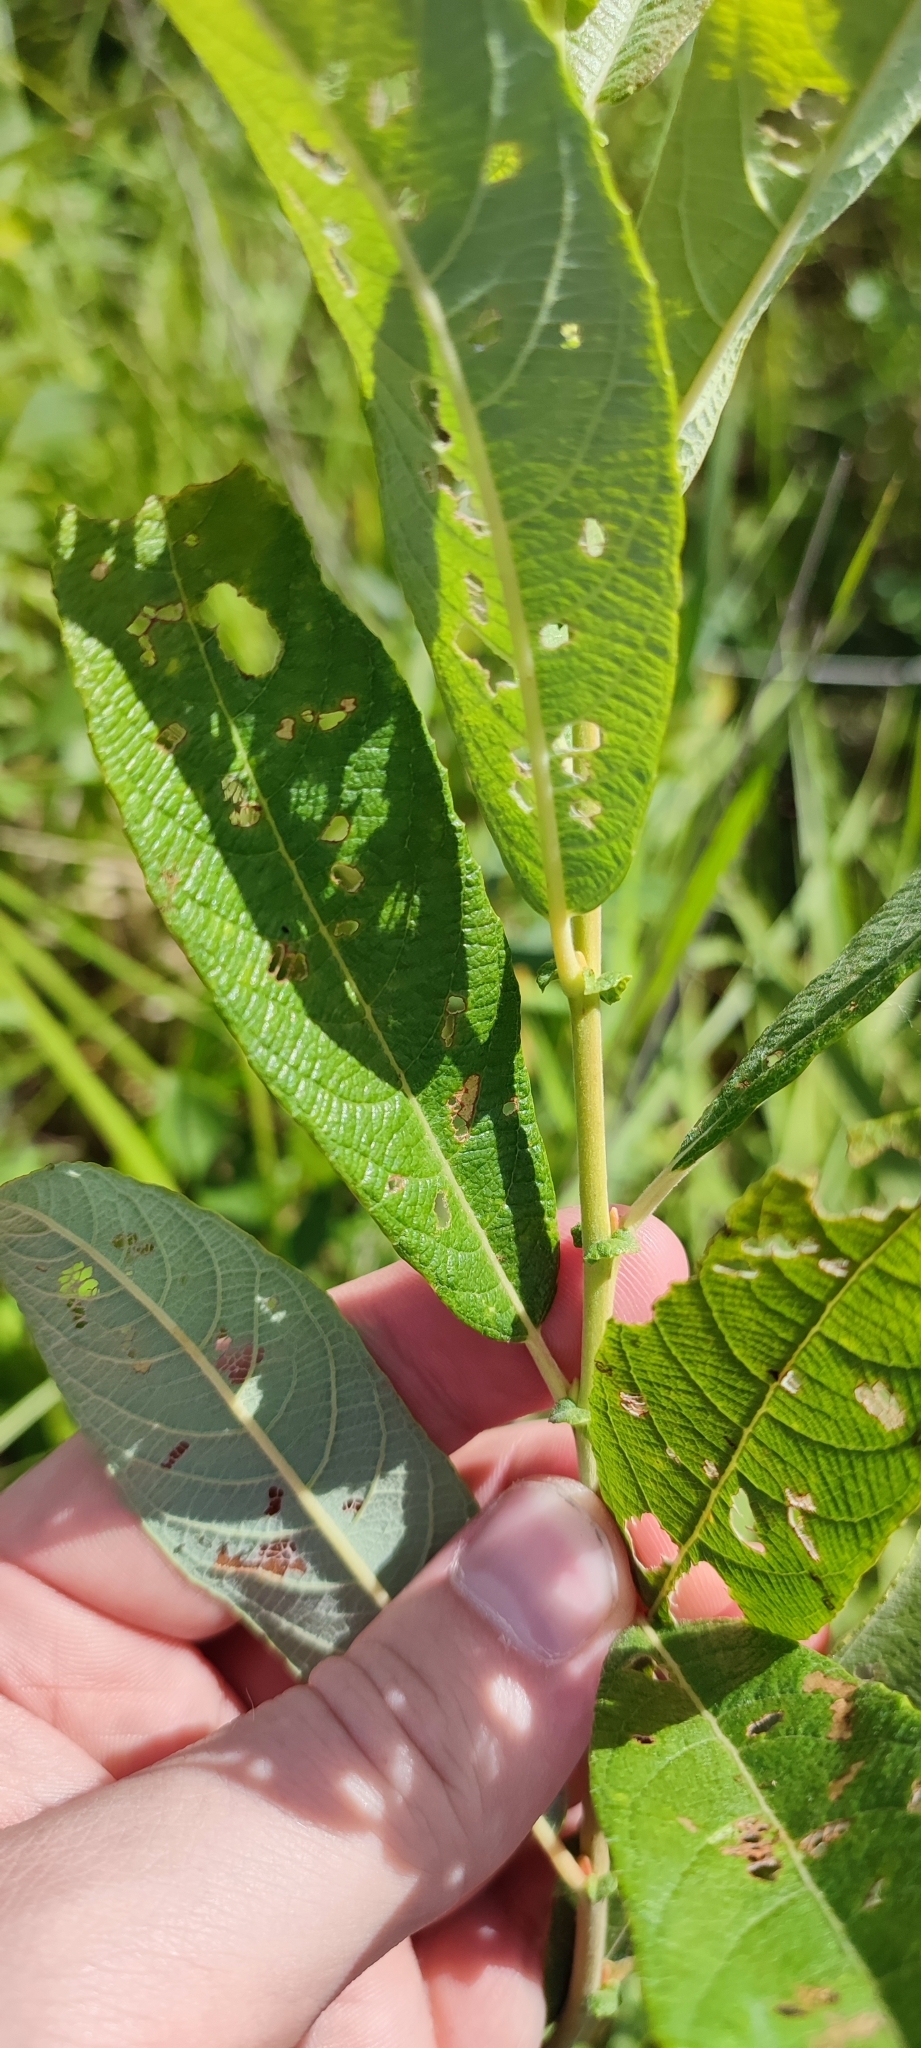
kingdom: Plantae
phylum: Tracheophyta
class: Magnoliopsida
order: Malpighiales
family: Salicaceae
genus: Salix
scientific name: Salix cinerea
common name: Common sallow
